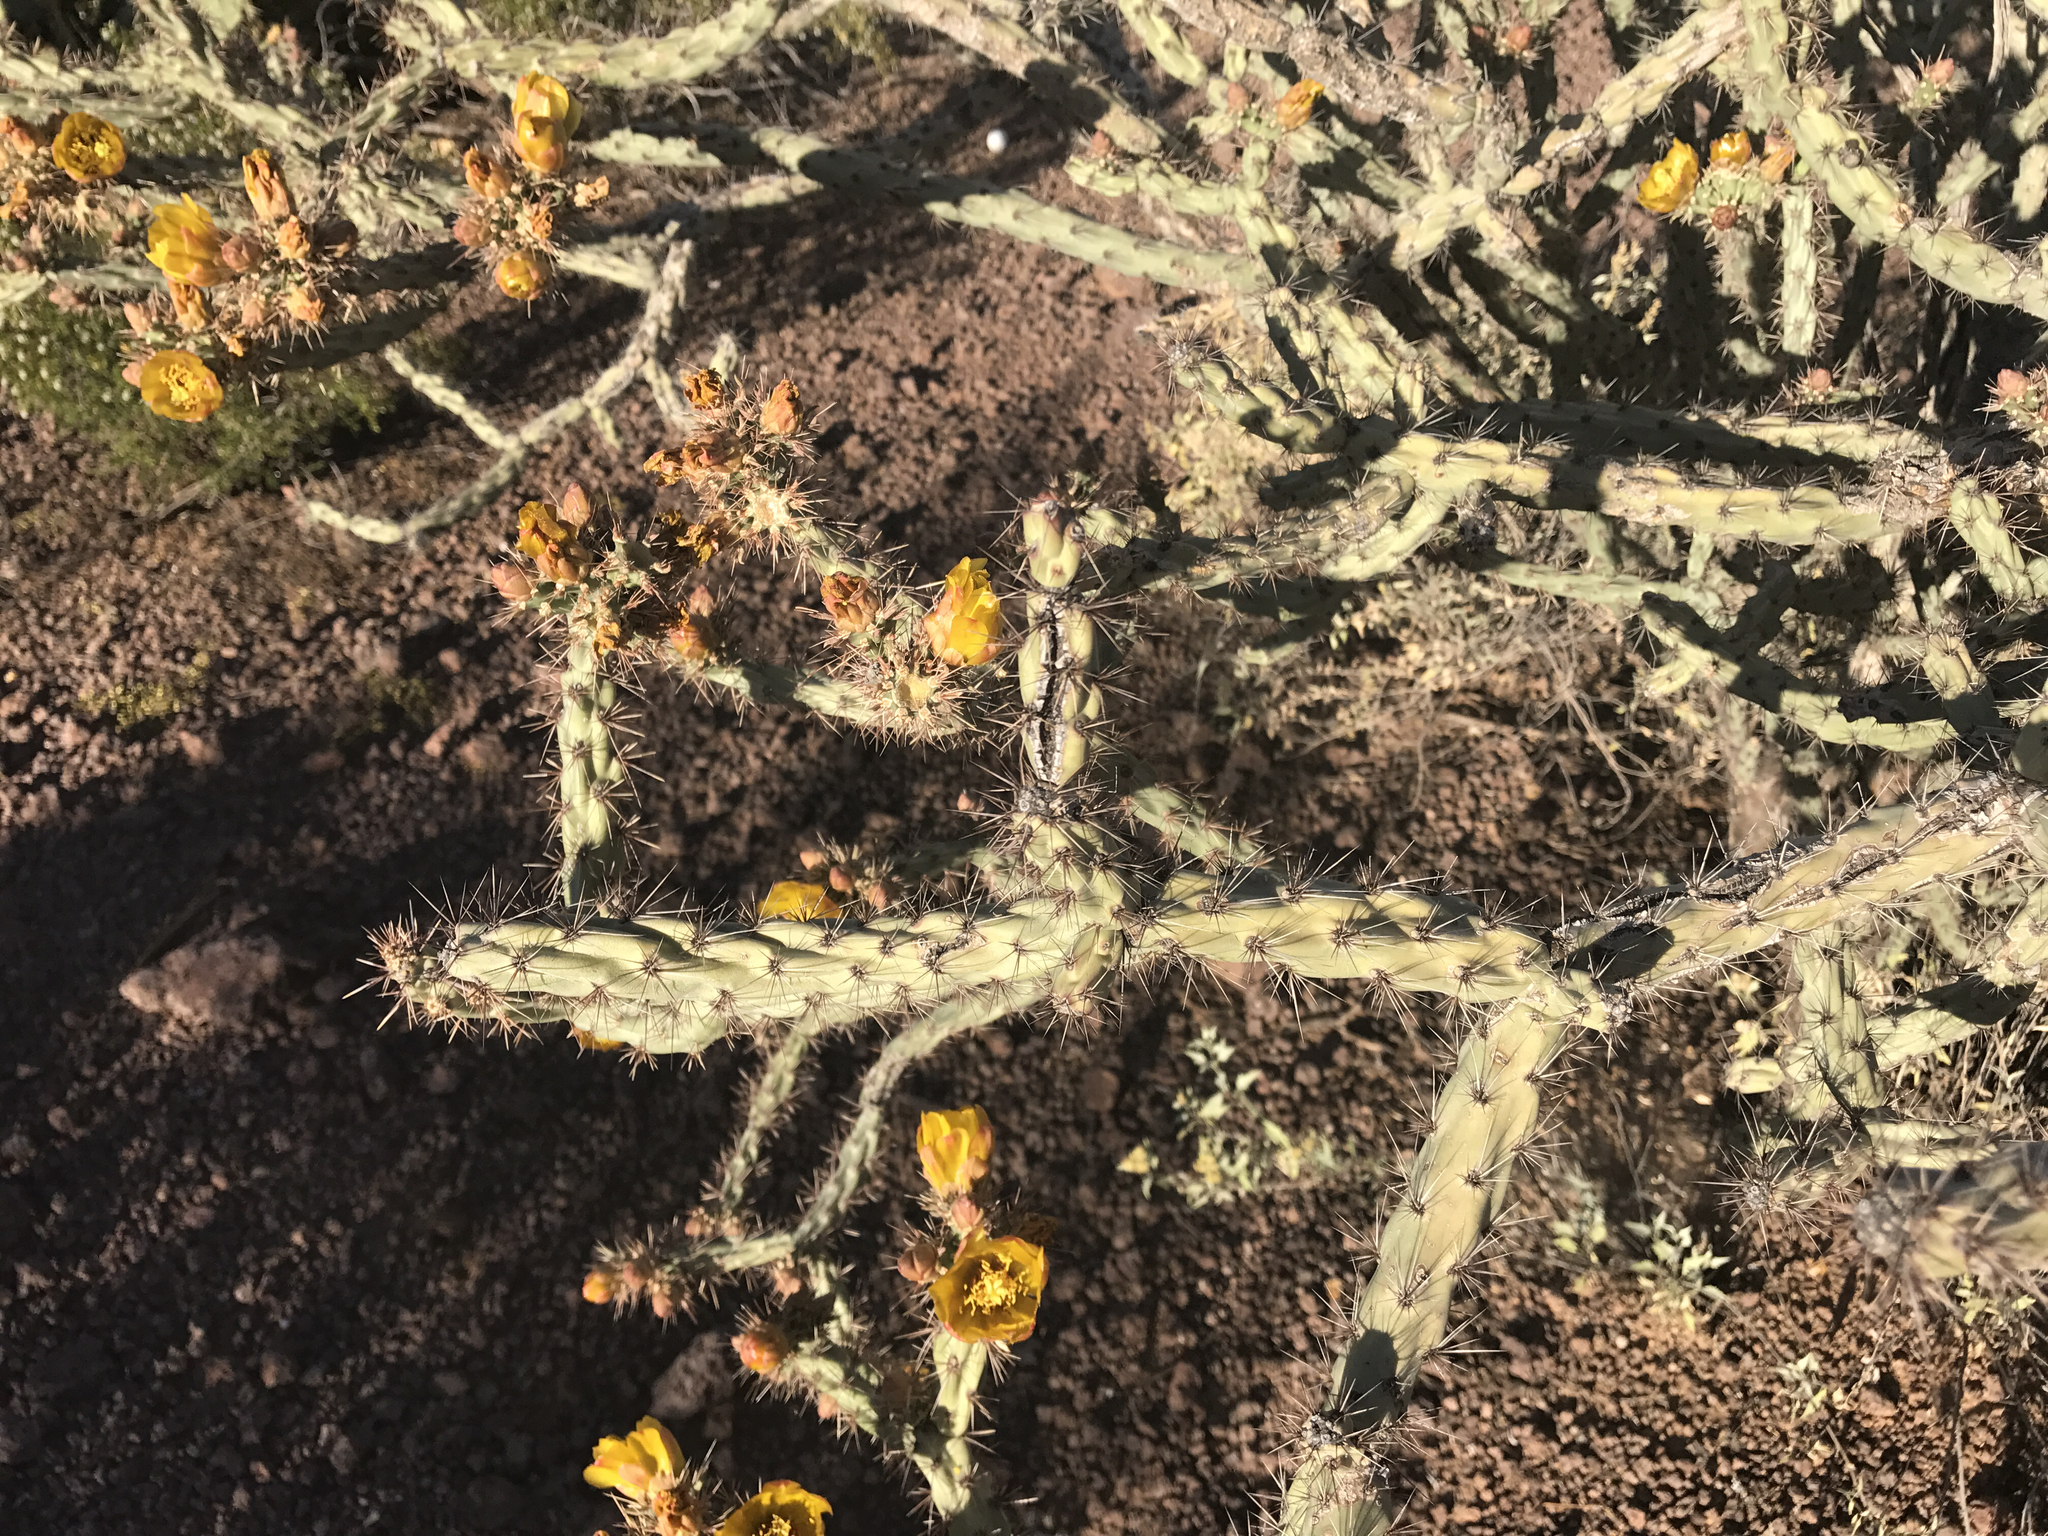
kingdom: Plantae
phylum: Tracheophyta
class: Magnoliopsida
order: Caryophyllales
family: Cactaceae
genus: Cylindropuntia
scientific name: Cylindropuntia acanthocarpa
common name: Buckhorn cholla
